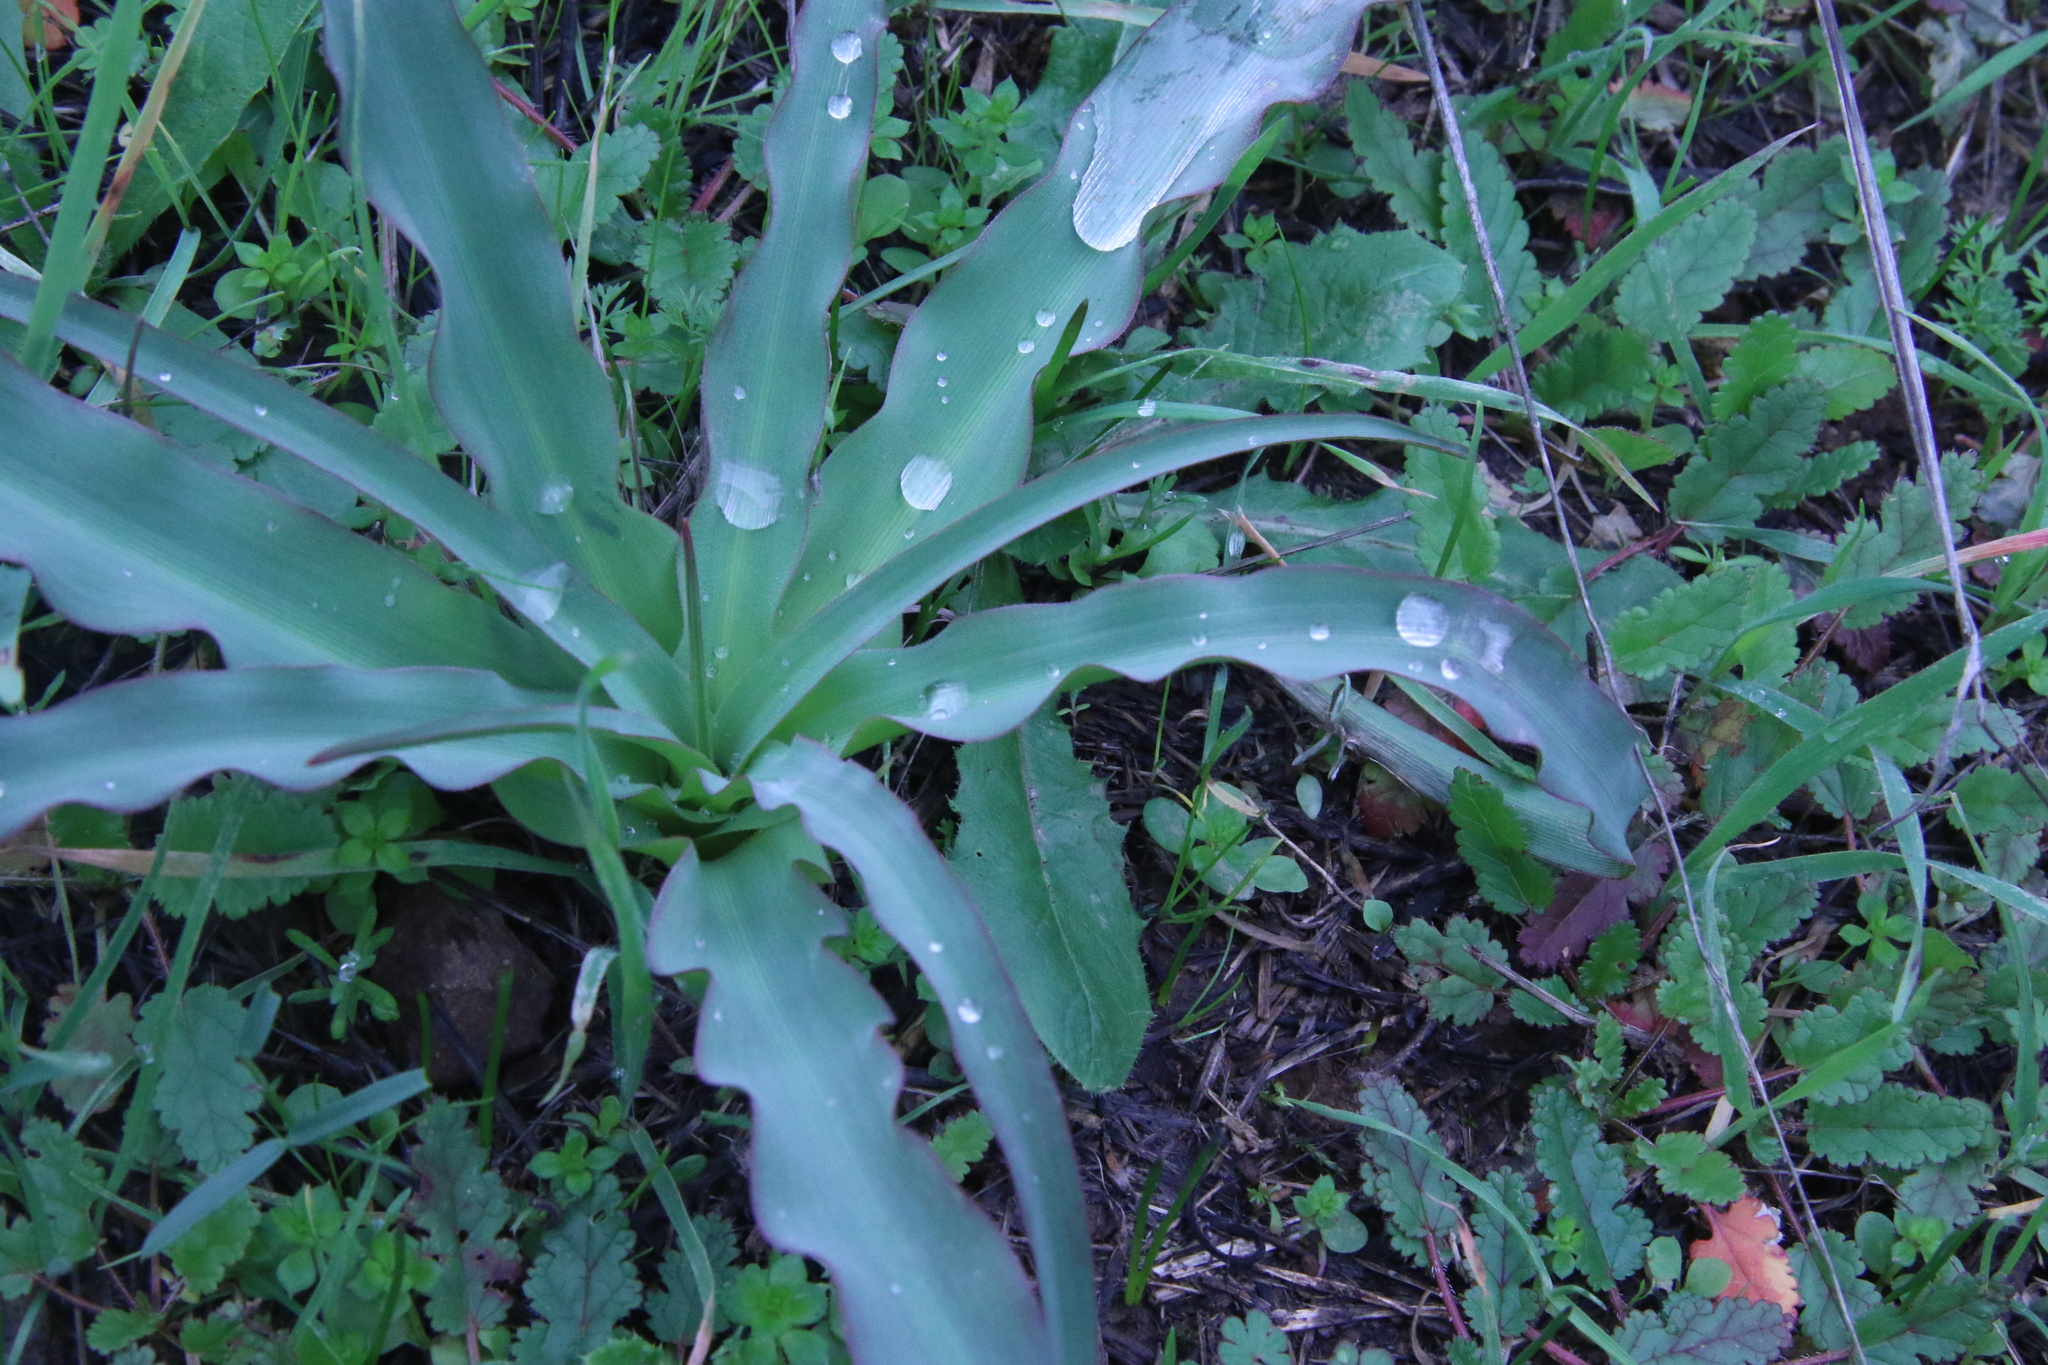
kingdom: Plantae
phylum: Tracheophyta
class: Liliopsida
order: Asparagales
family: Asparagaceae
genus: Chlorogalum
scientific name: Chlorogalum pomeridianum
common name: Amole
